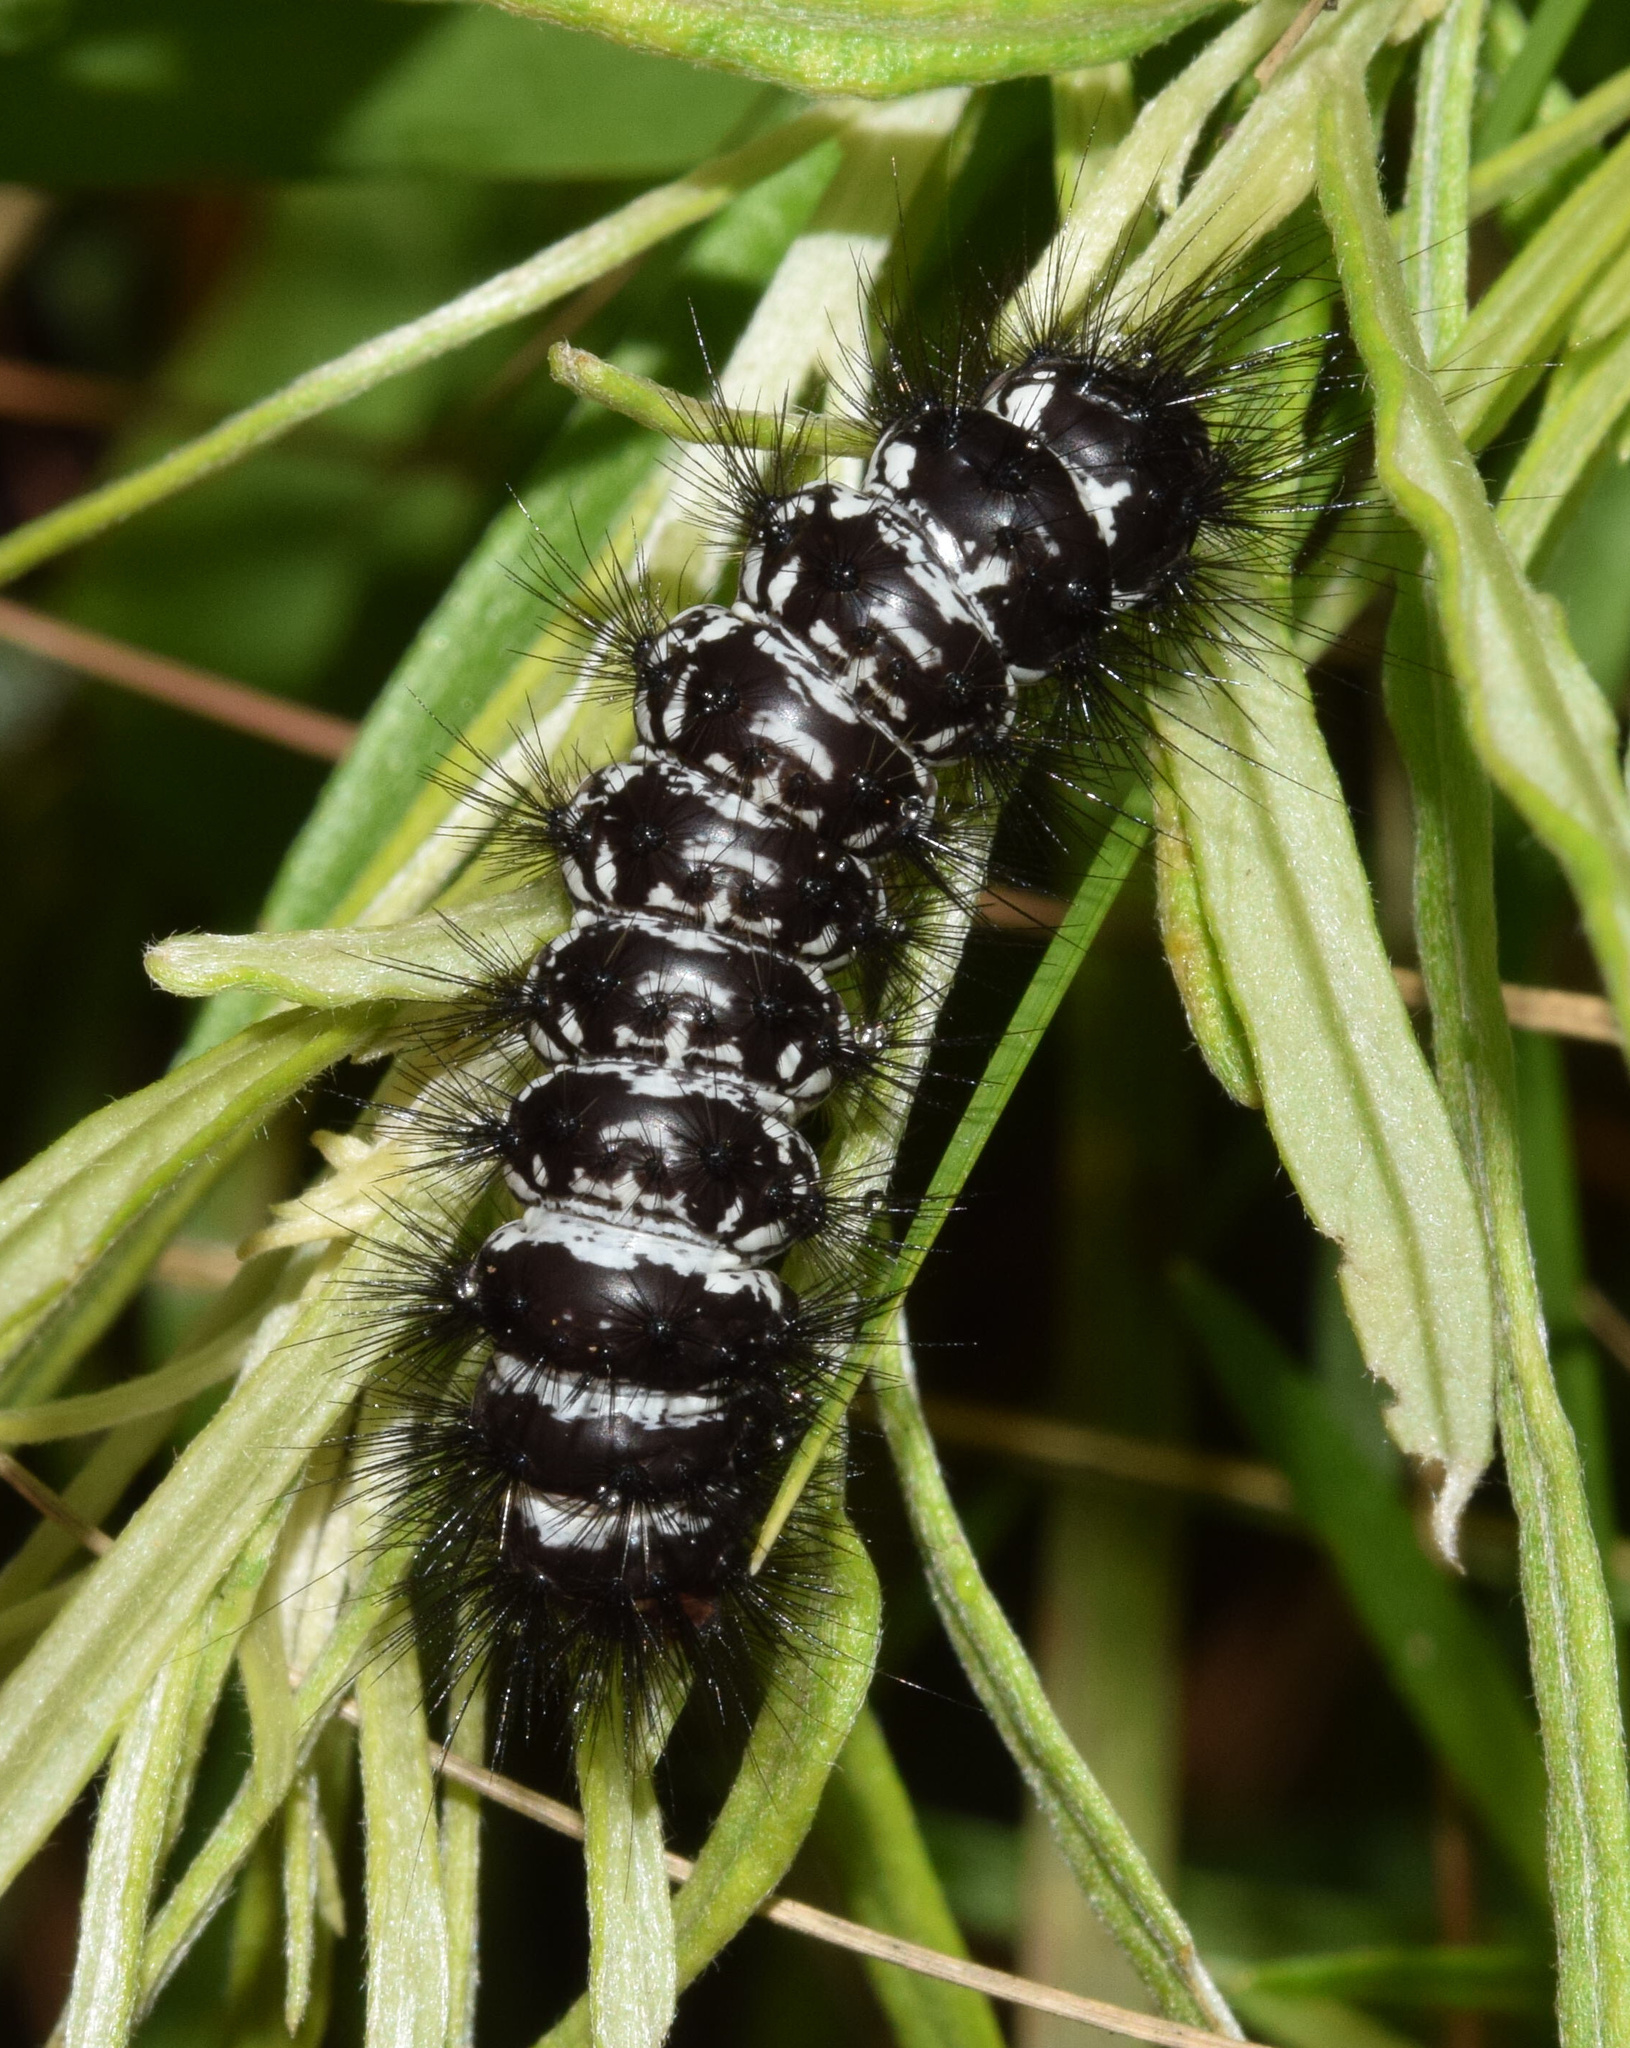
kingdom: Animalia
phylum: Arthropoda
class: Insecta
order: Lepidoptera
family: Erebidae
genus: Afromurzinia
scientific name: Afromurzinia lutescens
